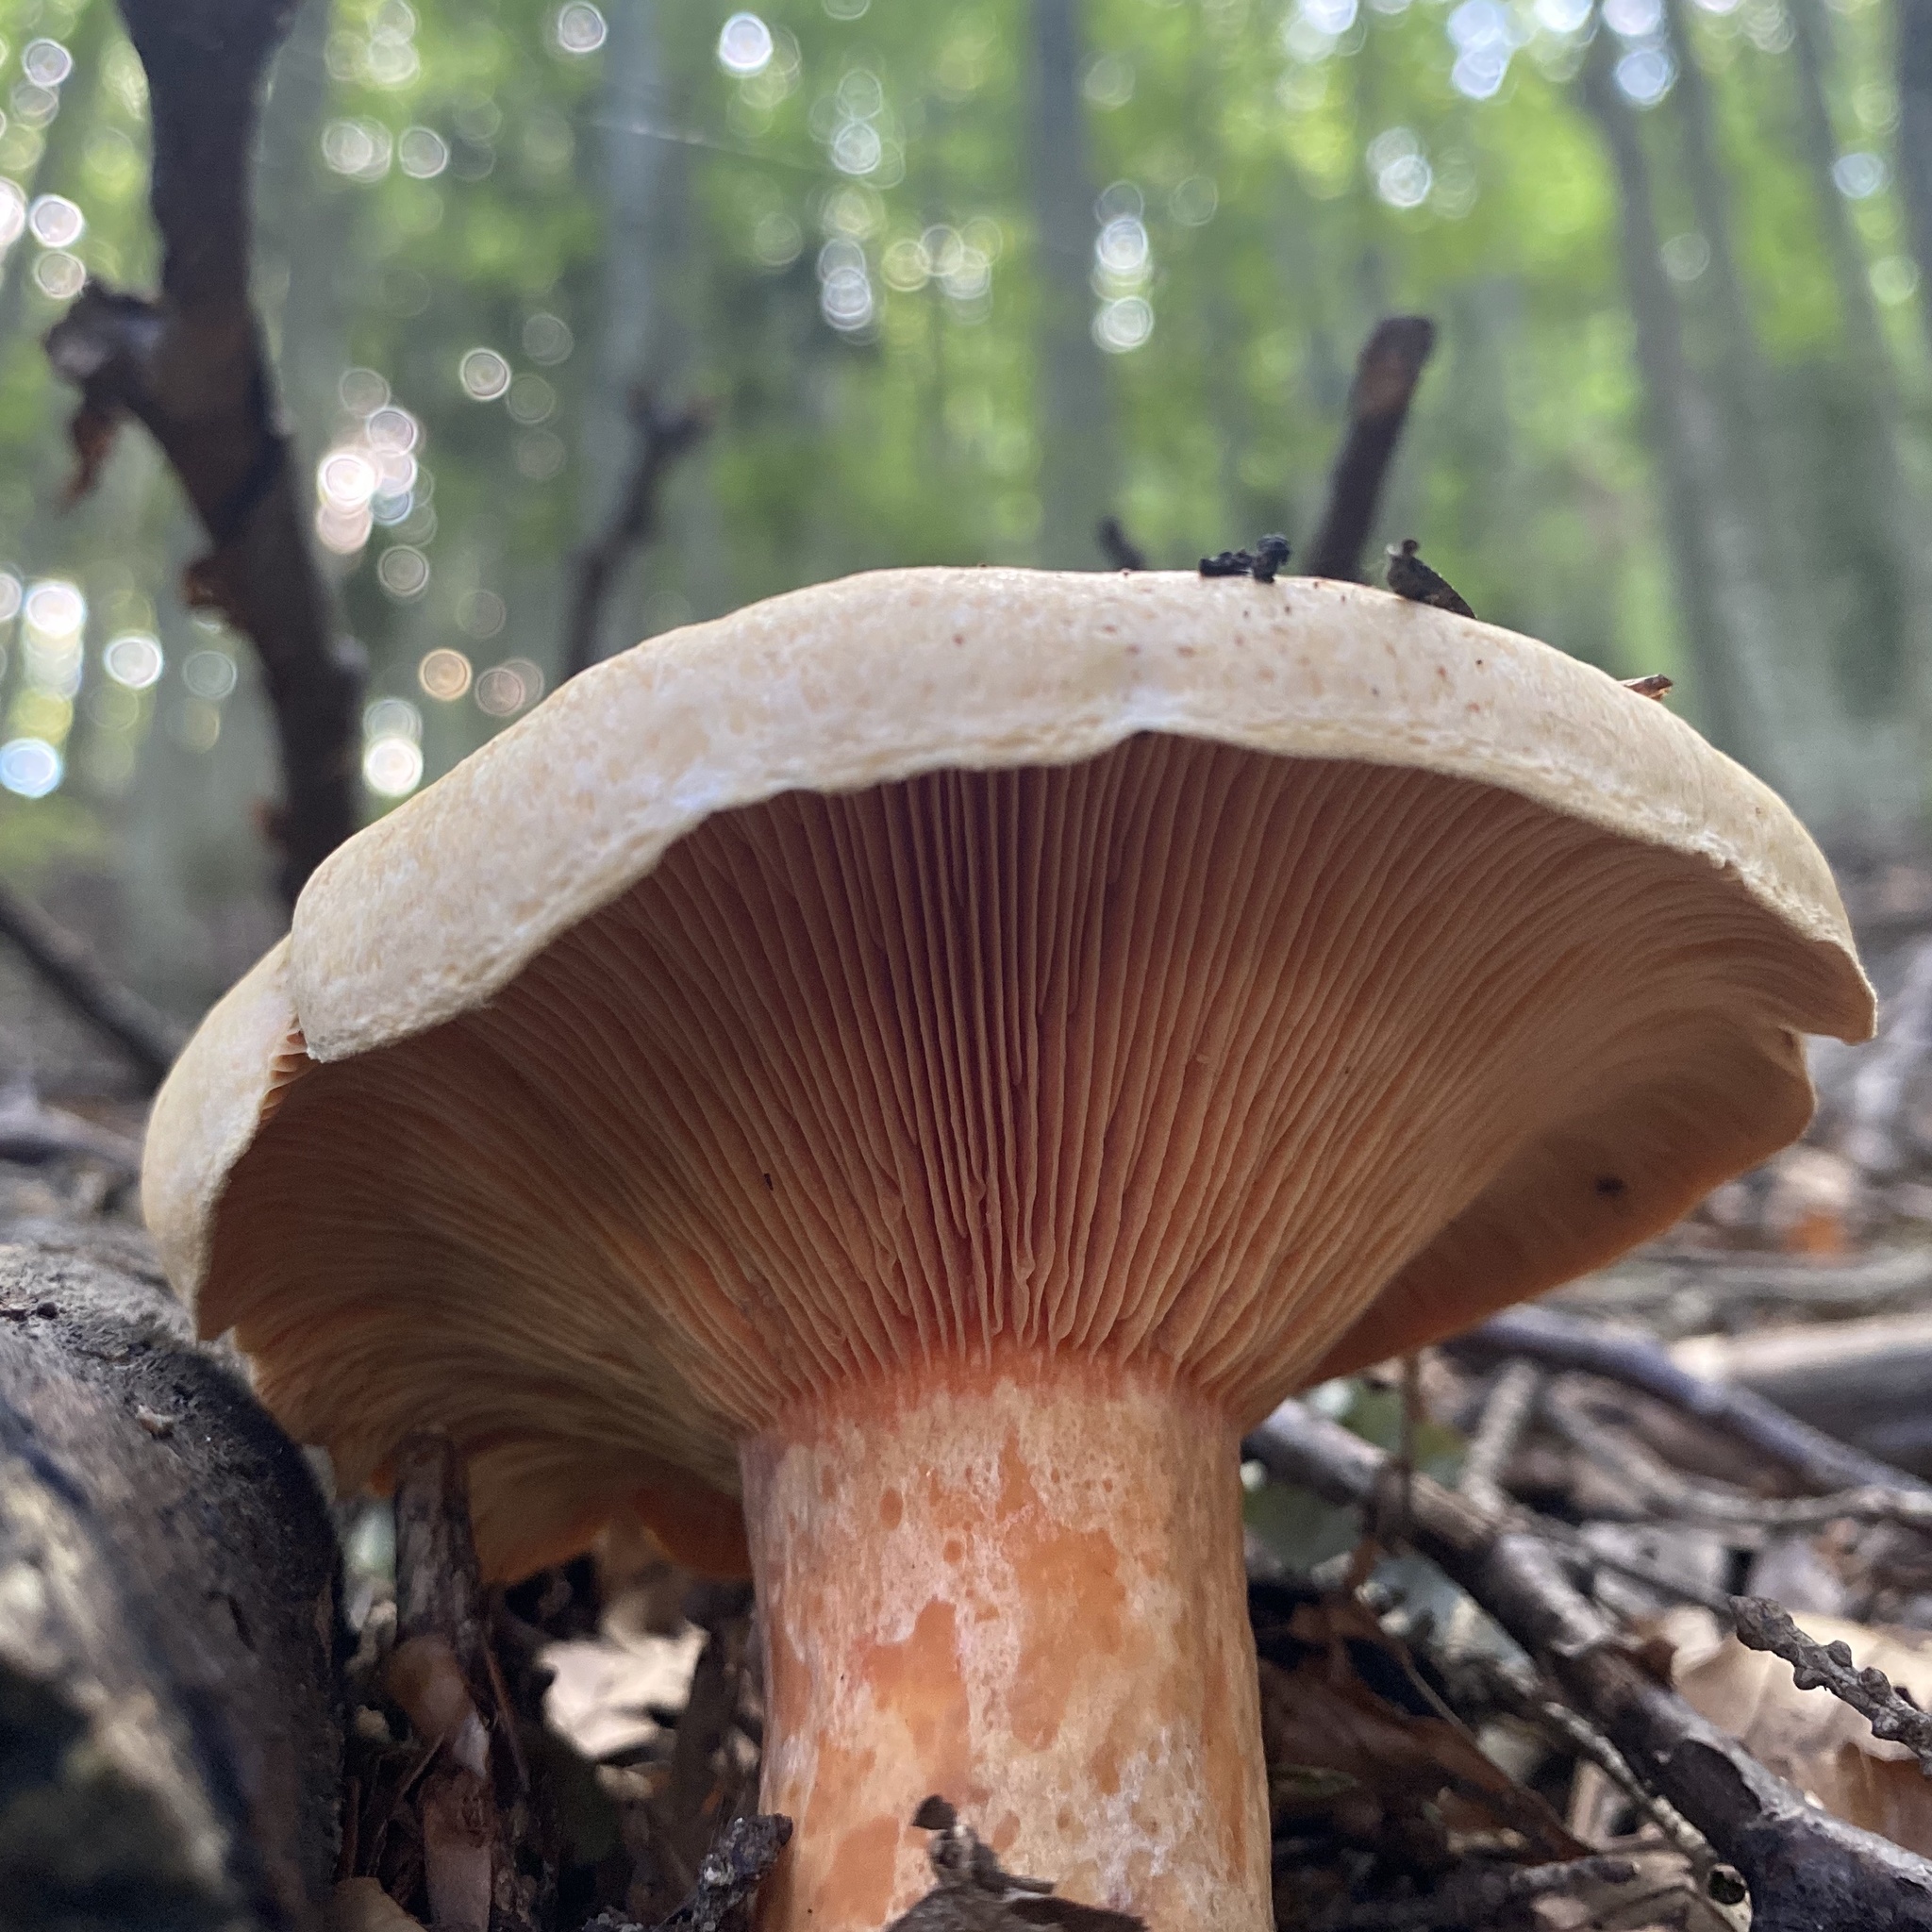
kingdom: Fungi
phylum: Basidiomycota
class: Agaricomycetes
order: Russulales
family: Russulaceae
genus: Lactarius
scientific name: Lactarius deliciosus
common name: Saffron milk-cap
